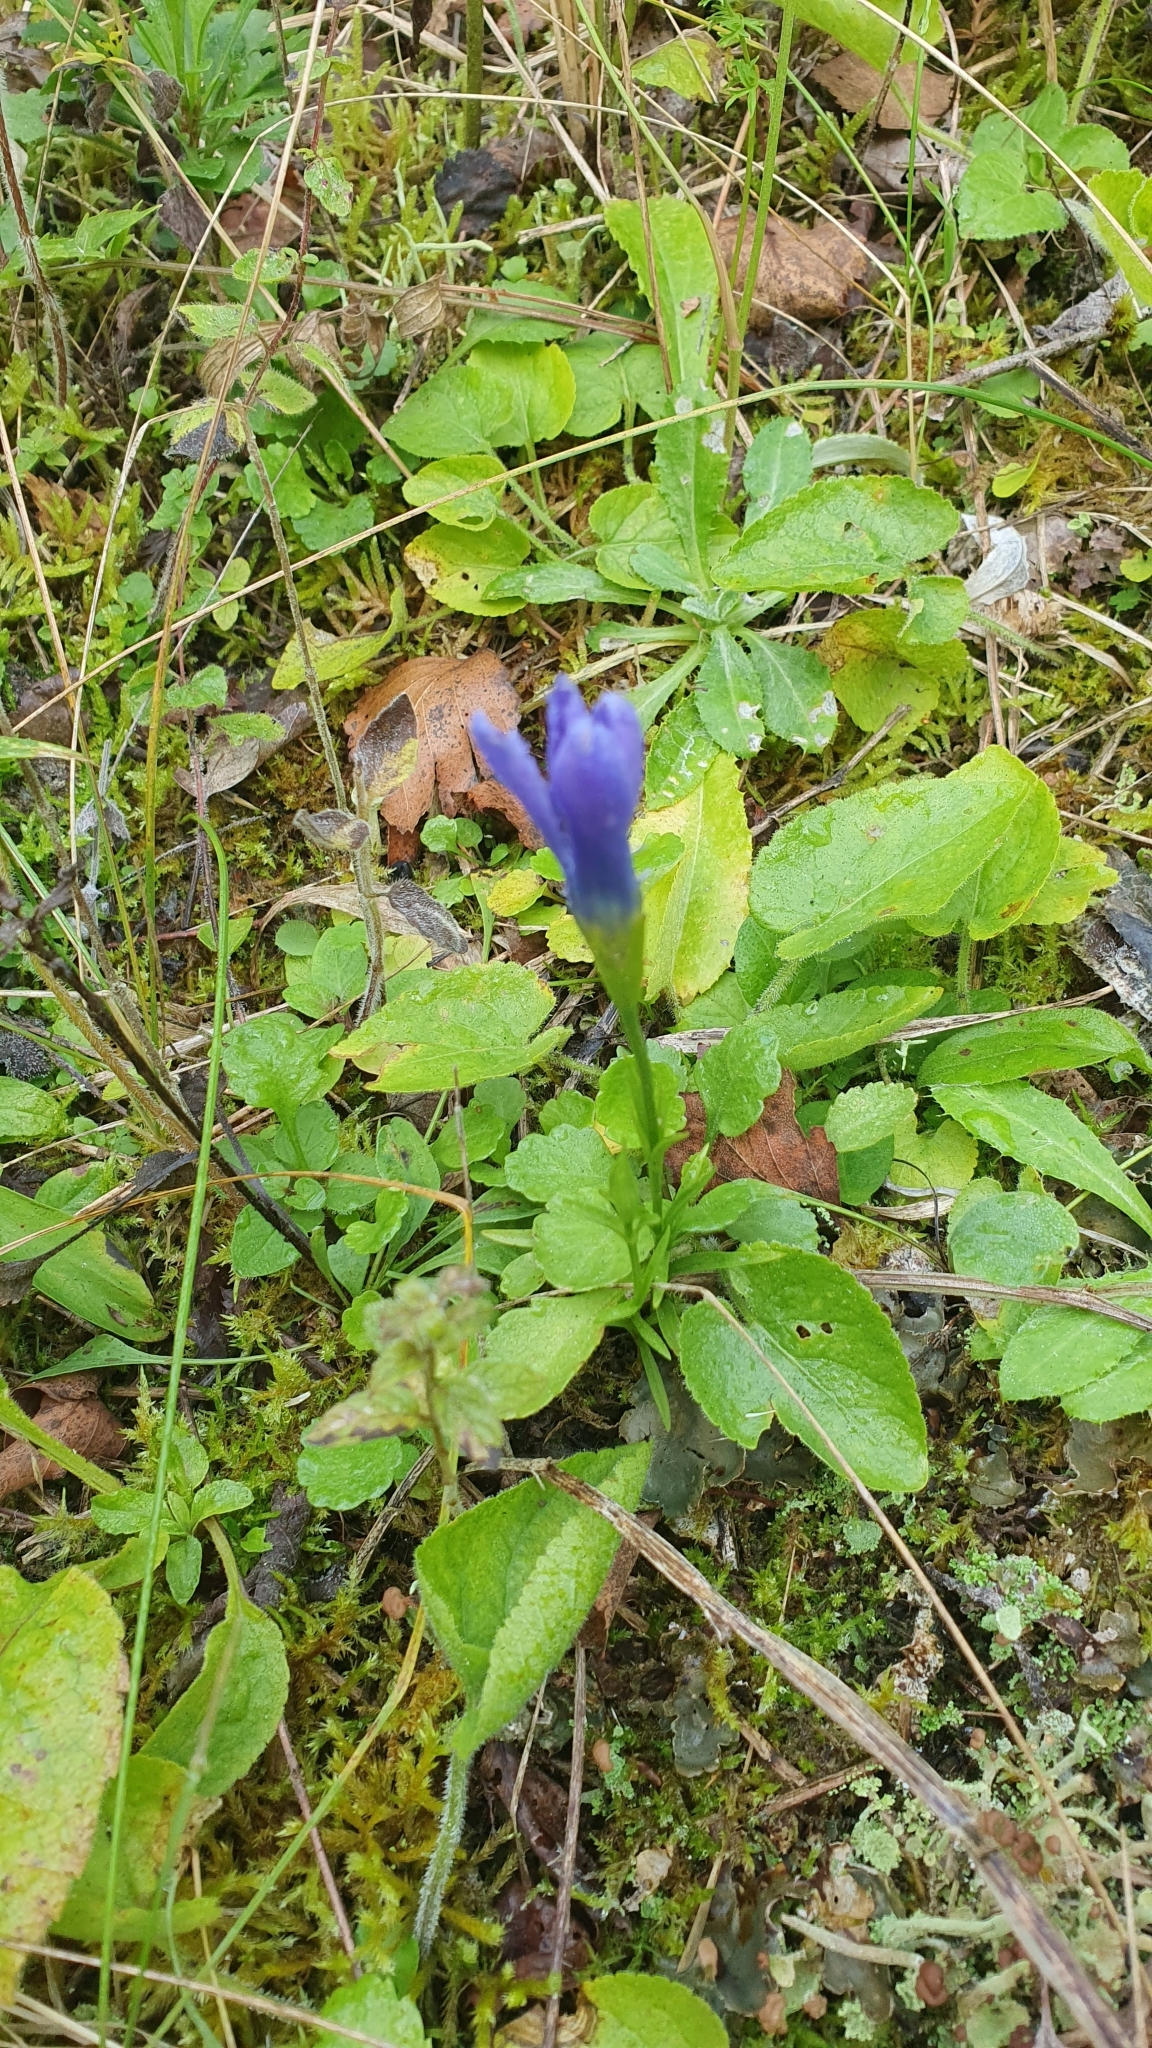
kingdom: Plantae
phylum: Tracheophyta
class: Magnoliopsida
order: Gentianales
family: Gentianaceae
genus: Gentianopsis
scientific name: Gentianopsis ciliata
